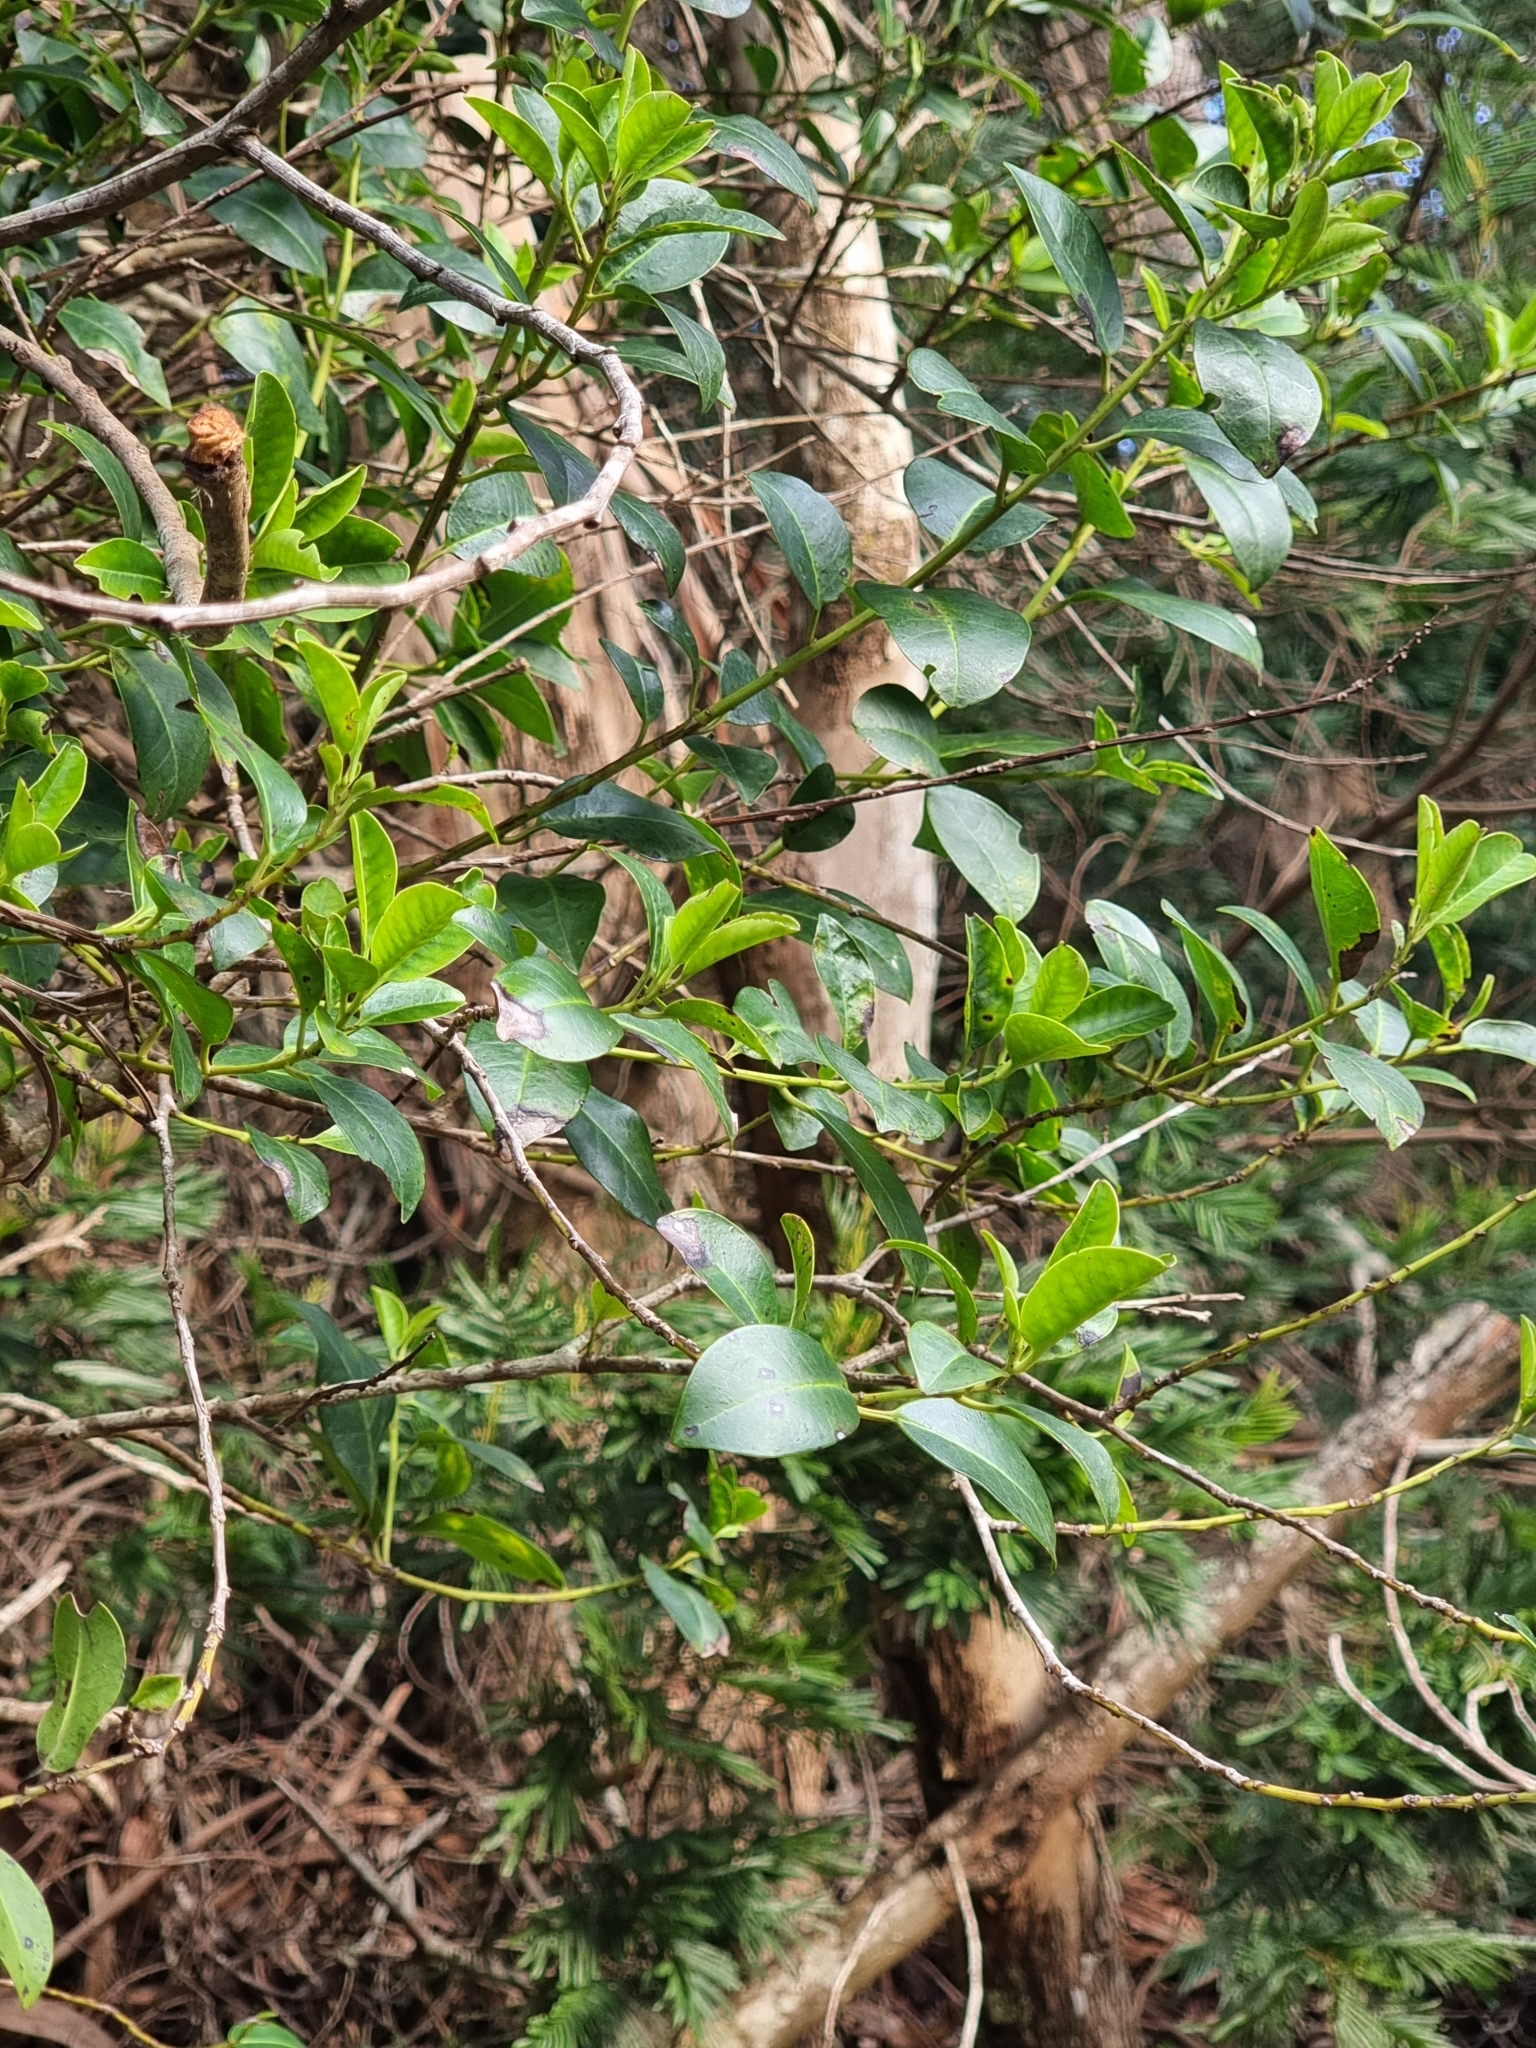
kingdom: Plantae
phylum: Tracheophyta
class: Magnoliopsida
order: Aquifoliales
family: Aquifoliaceae
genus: Ilex
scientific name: Ilex canariensis
